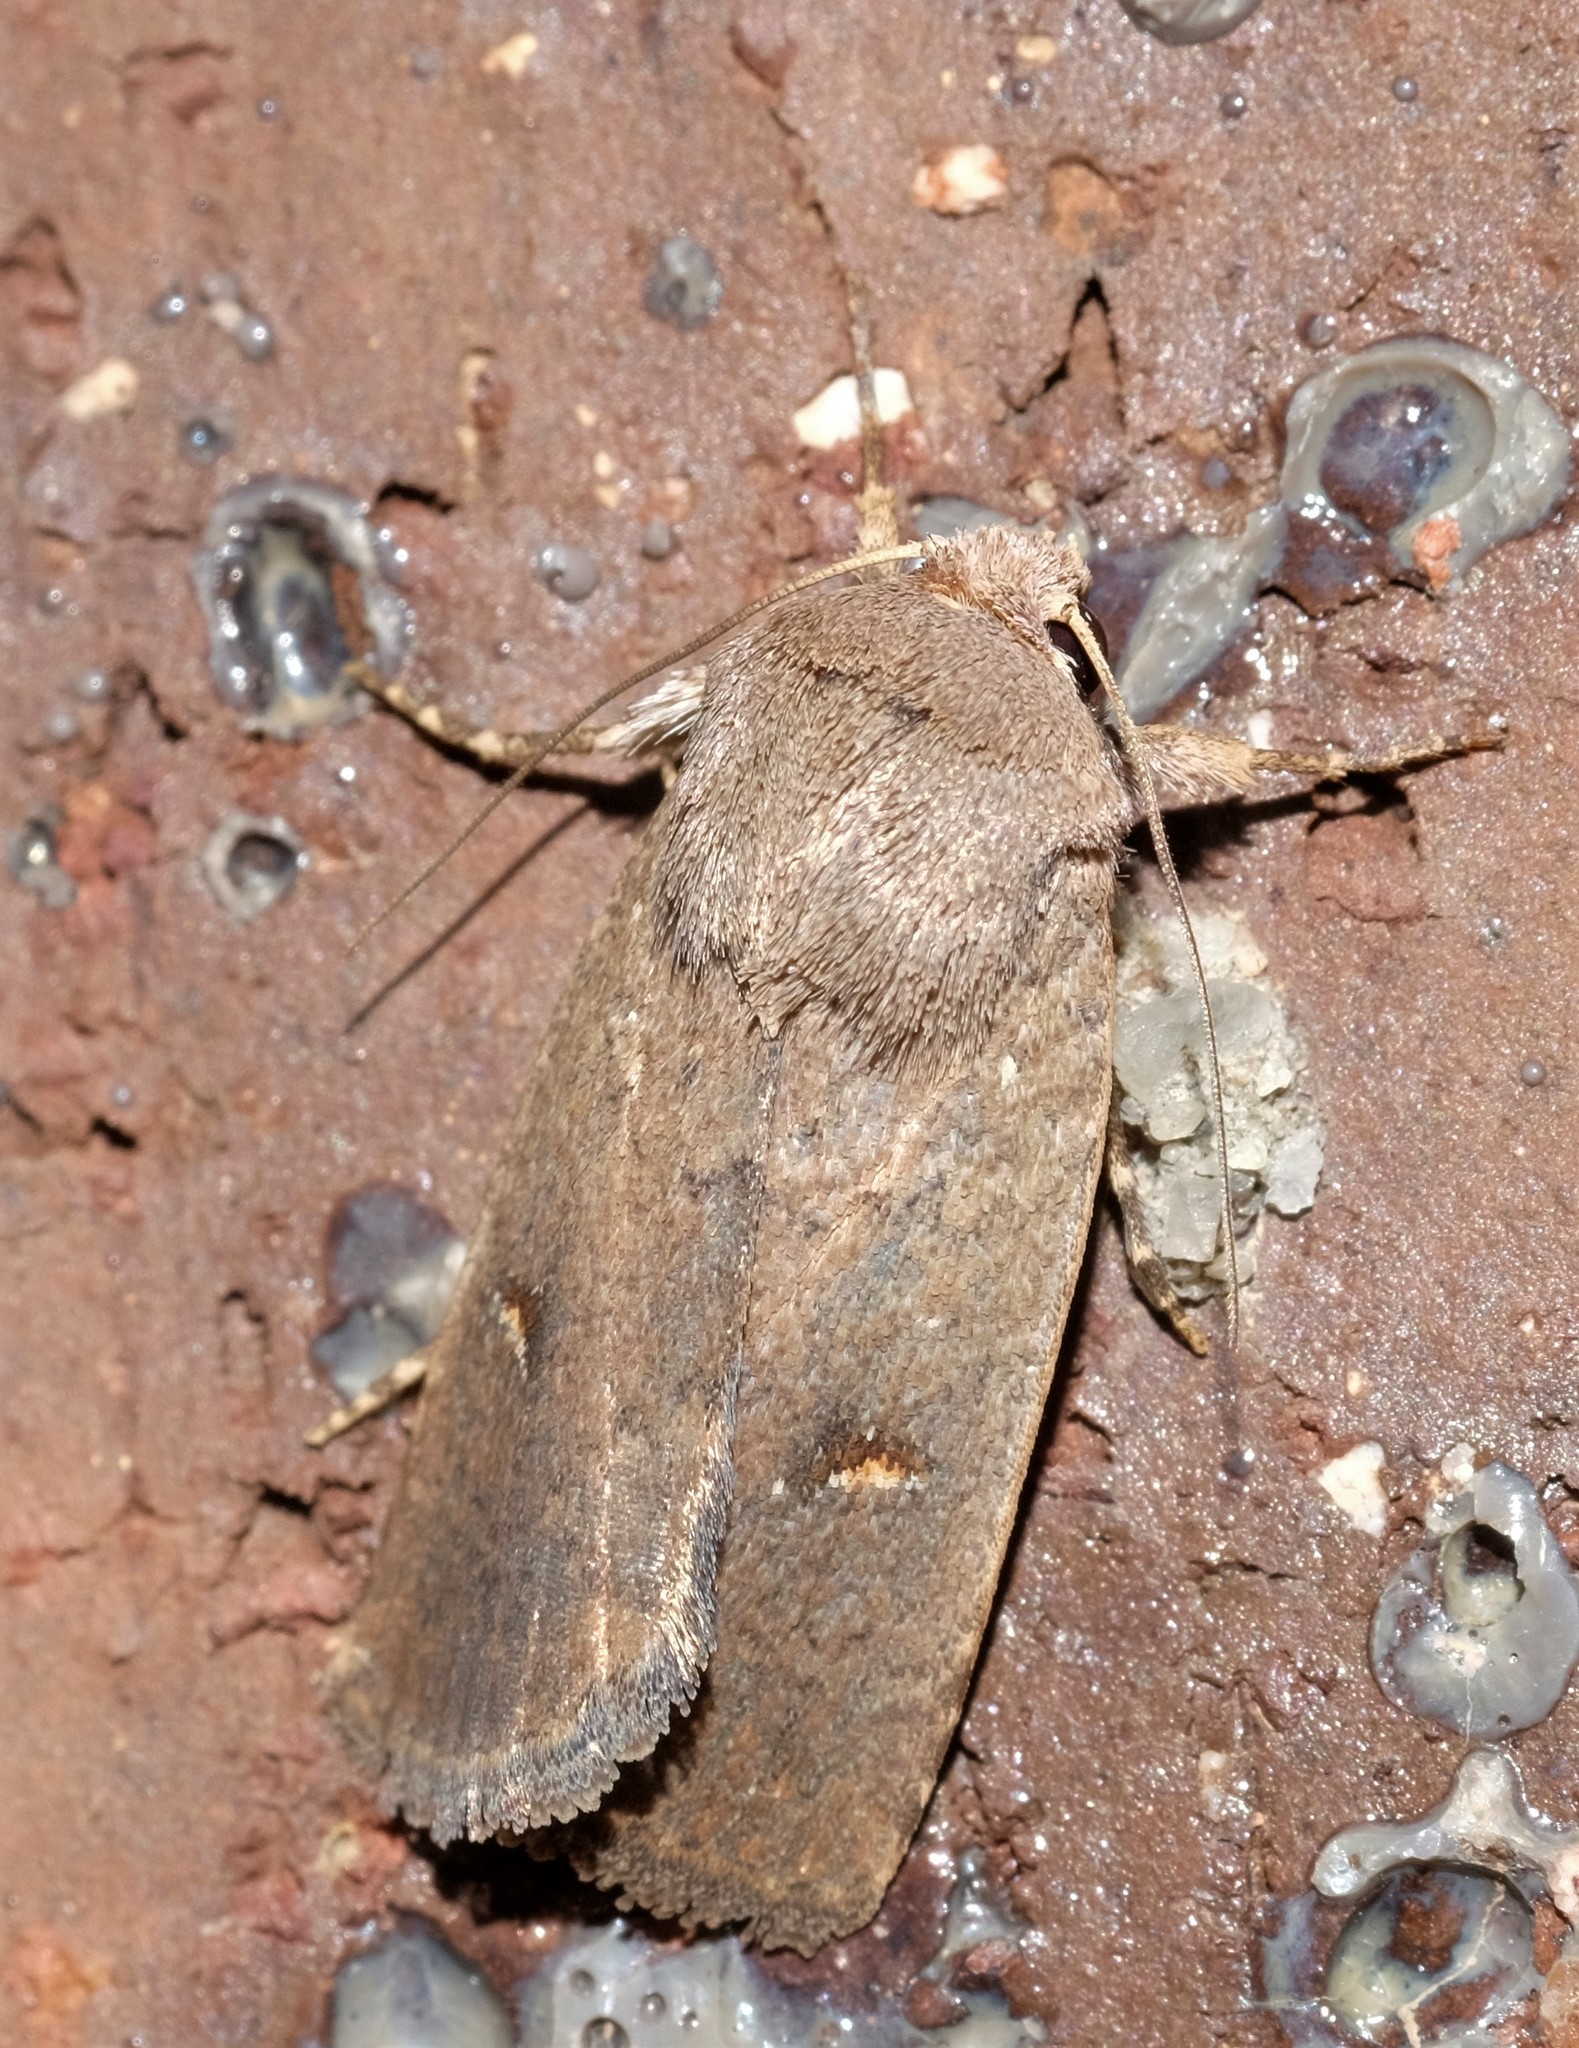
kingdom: Animalia
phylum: Arthropoda
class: Insecta
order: Lepidoptera
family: Noctuidae
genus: Proteuxoa
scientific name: Proteuxoa hypochalchis
